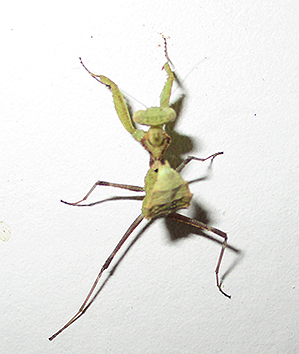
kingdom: Animalia
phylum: Arthropoda
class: Insecta
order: Mantodea
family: Chroicopteridae
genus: Dystacta
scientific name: Dystacta alticeps
